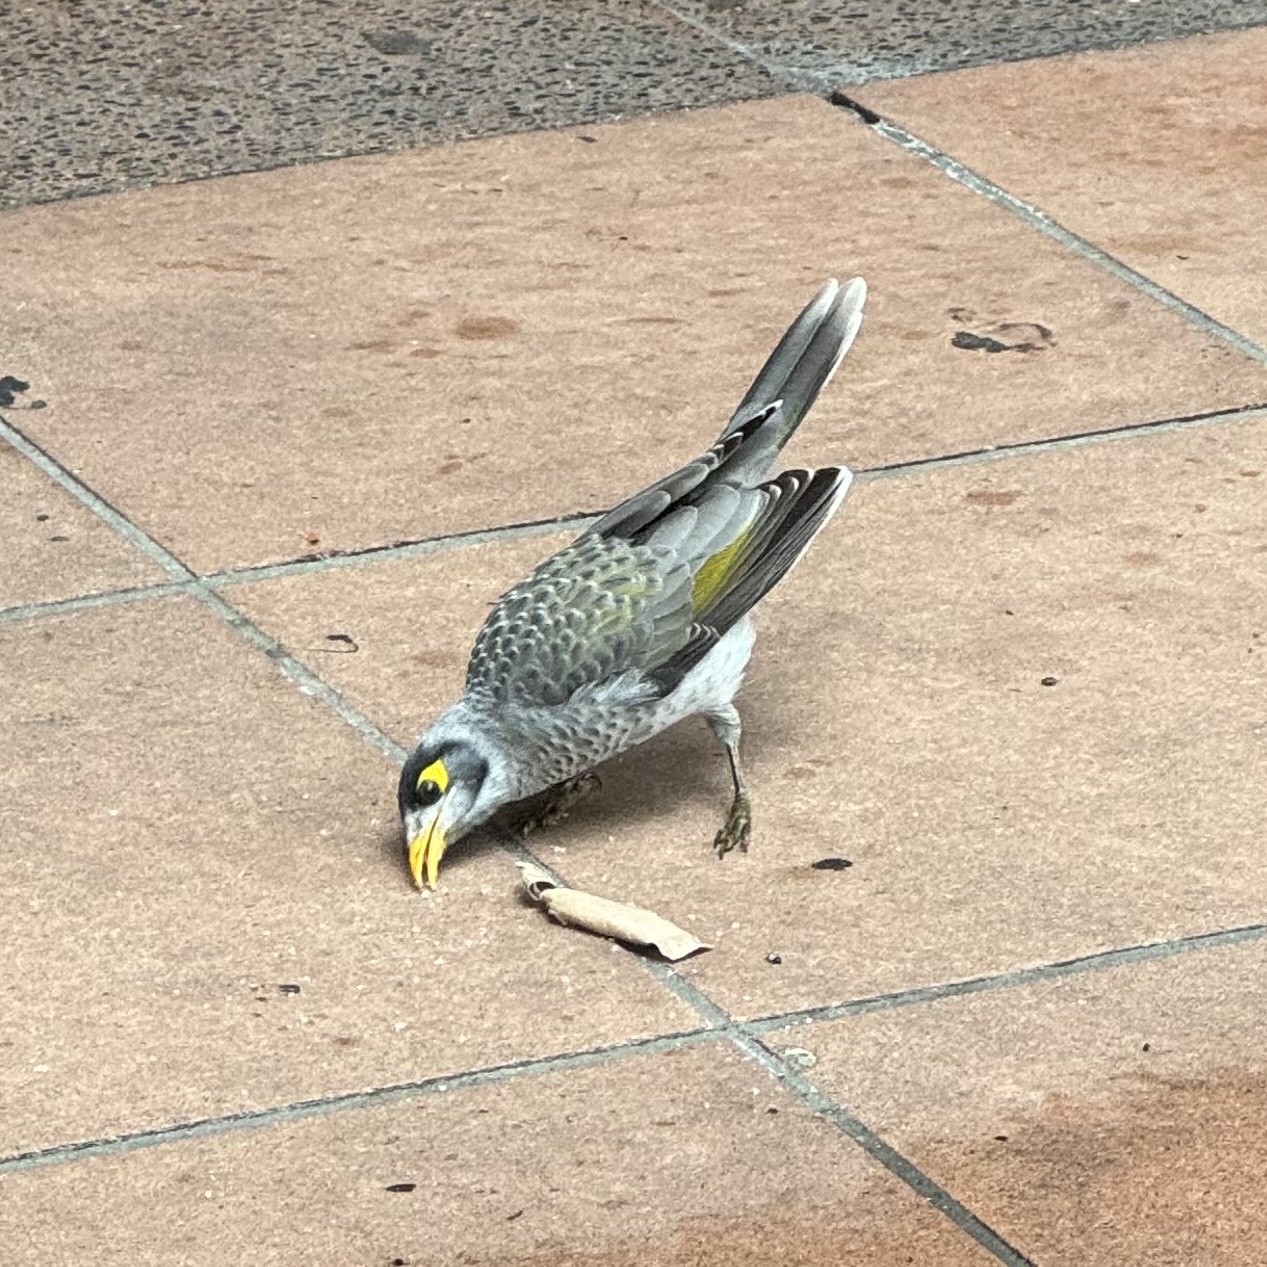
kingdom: Animalia
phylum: Chordata
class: Aves
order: Passeriformes
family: Meliphagidae
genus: Manorina
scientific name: Manorina melanocephala
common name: Noisy miner
